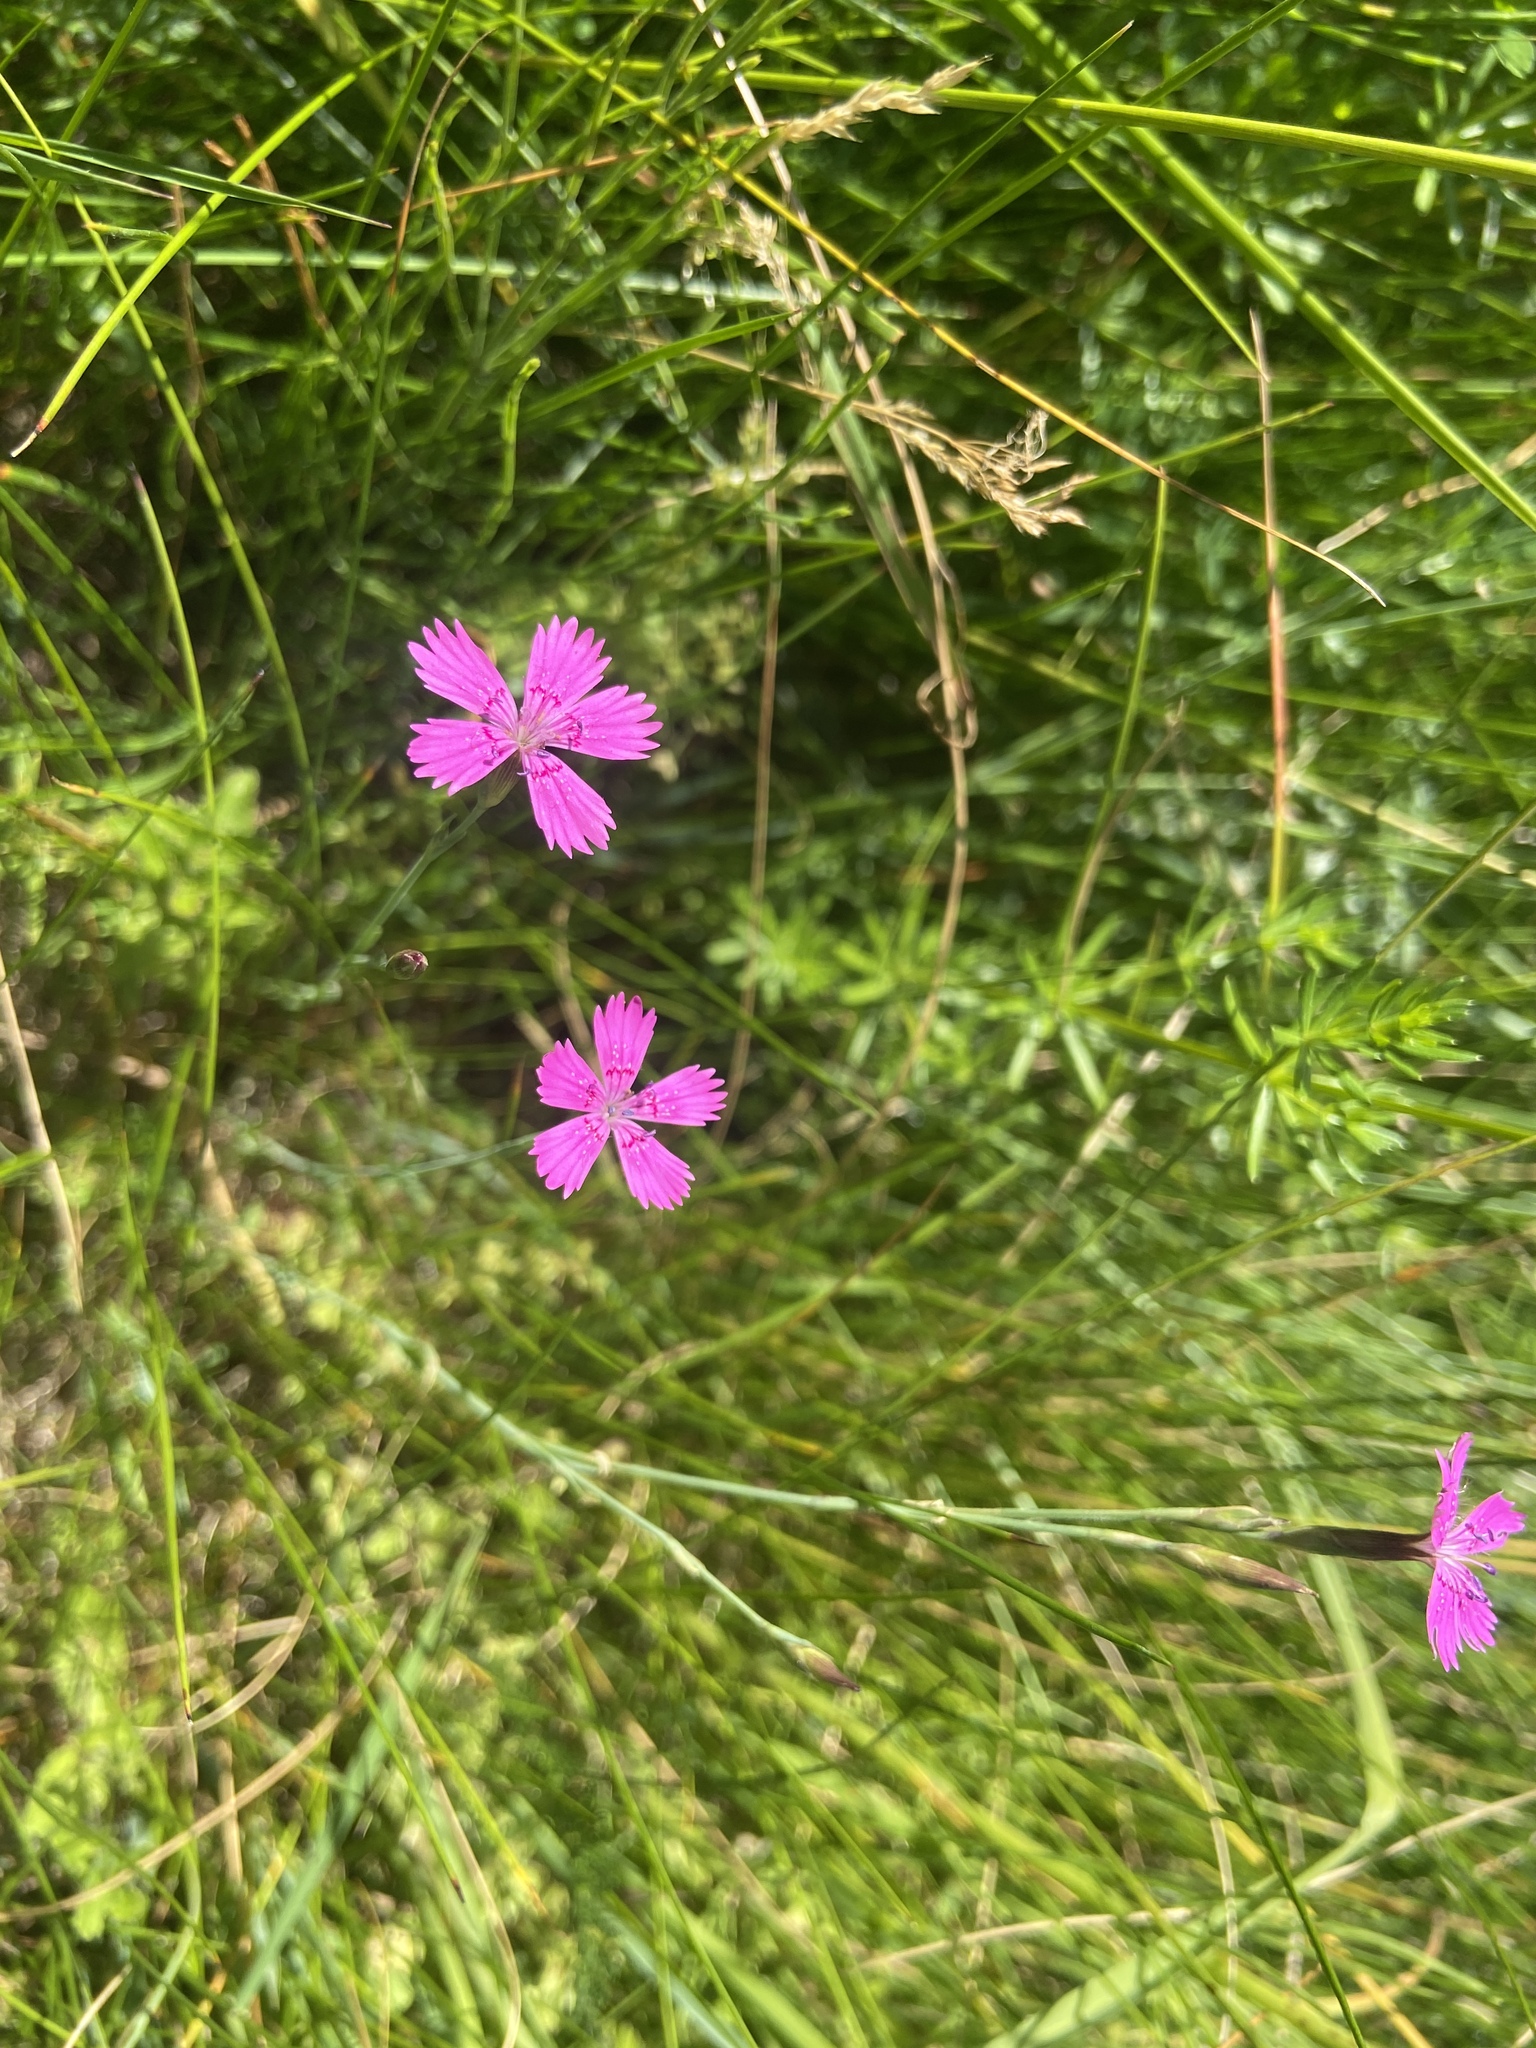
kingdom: Plantae
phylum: Tracheophyta
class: Magnoliopsida
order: Caryophyllales
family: Caryophyllaceae
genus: Dianthus
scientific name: Dianthus deltoides
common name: Maiden pink
